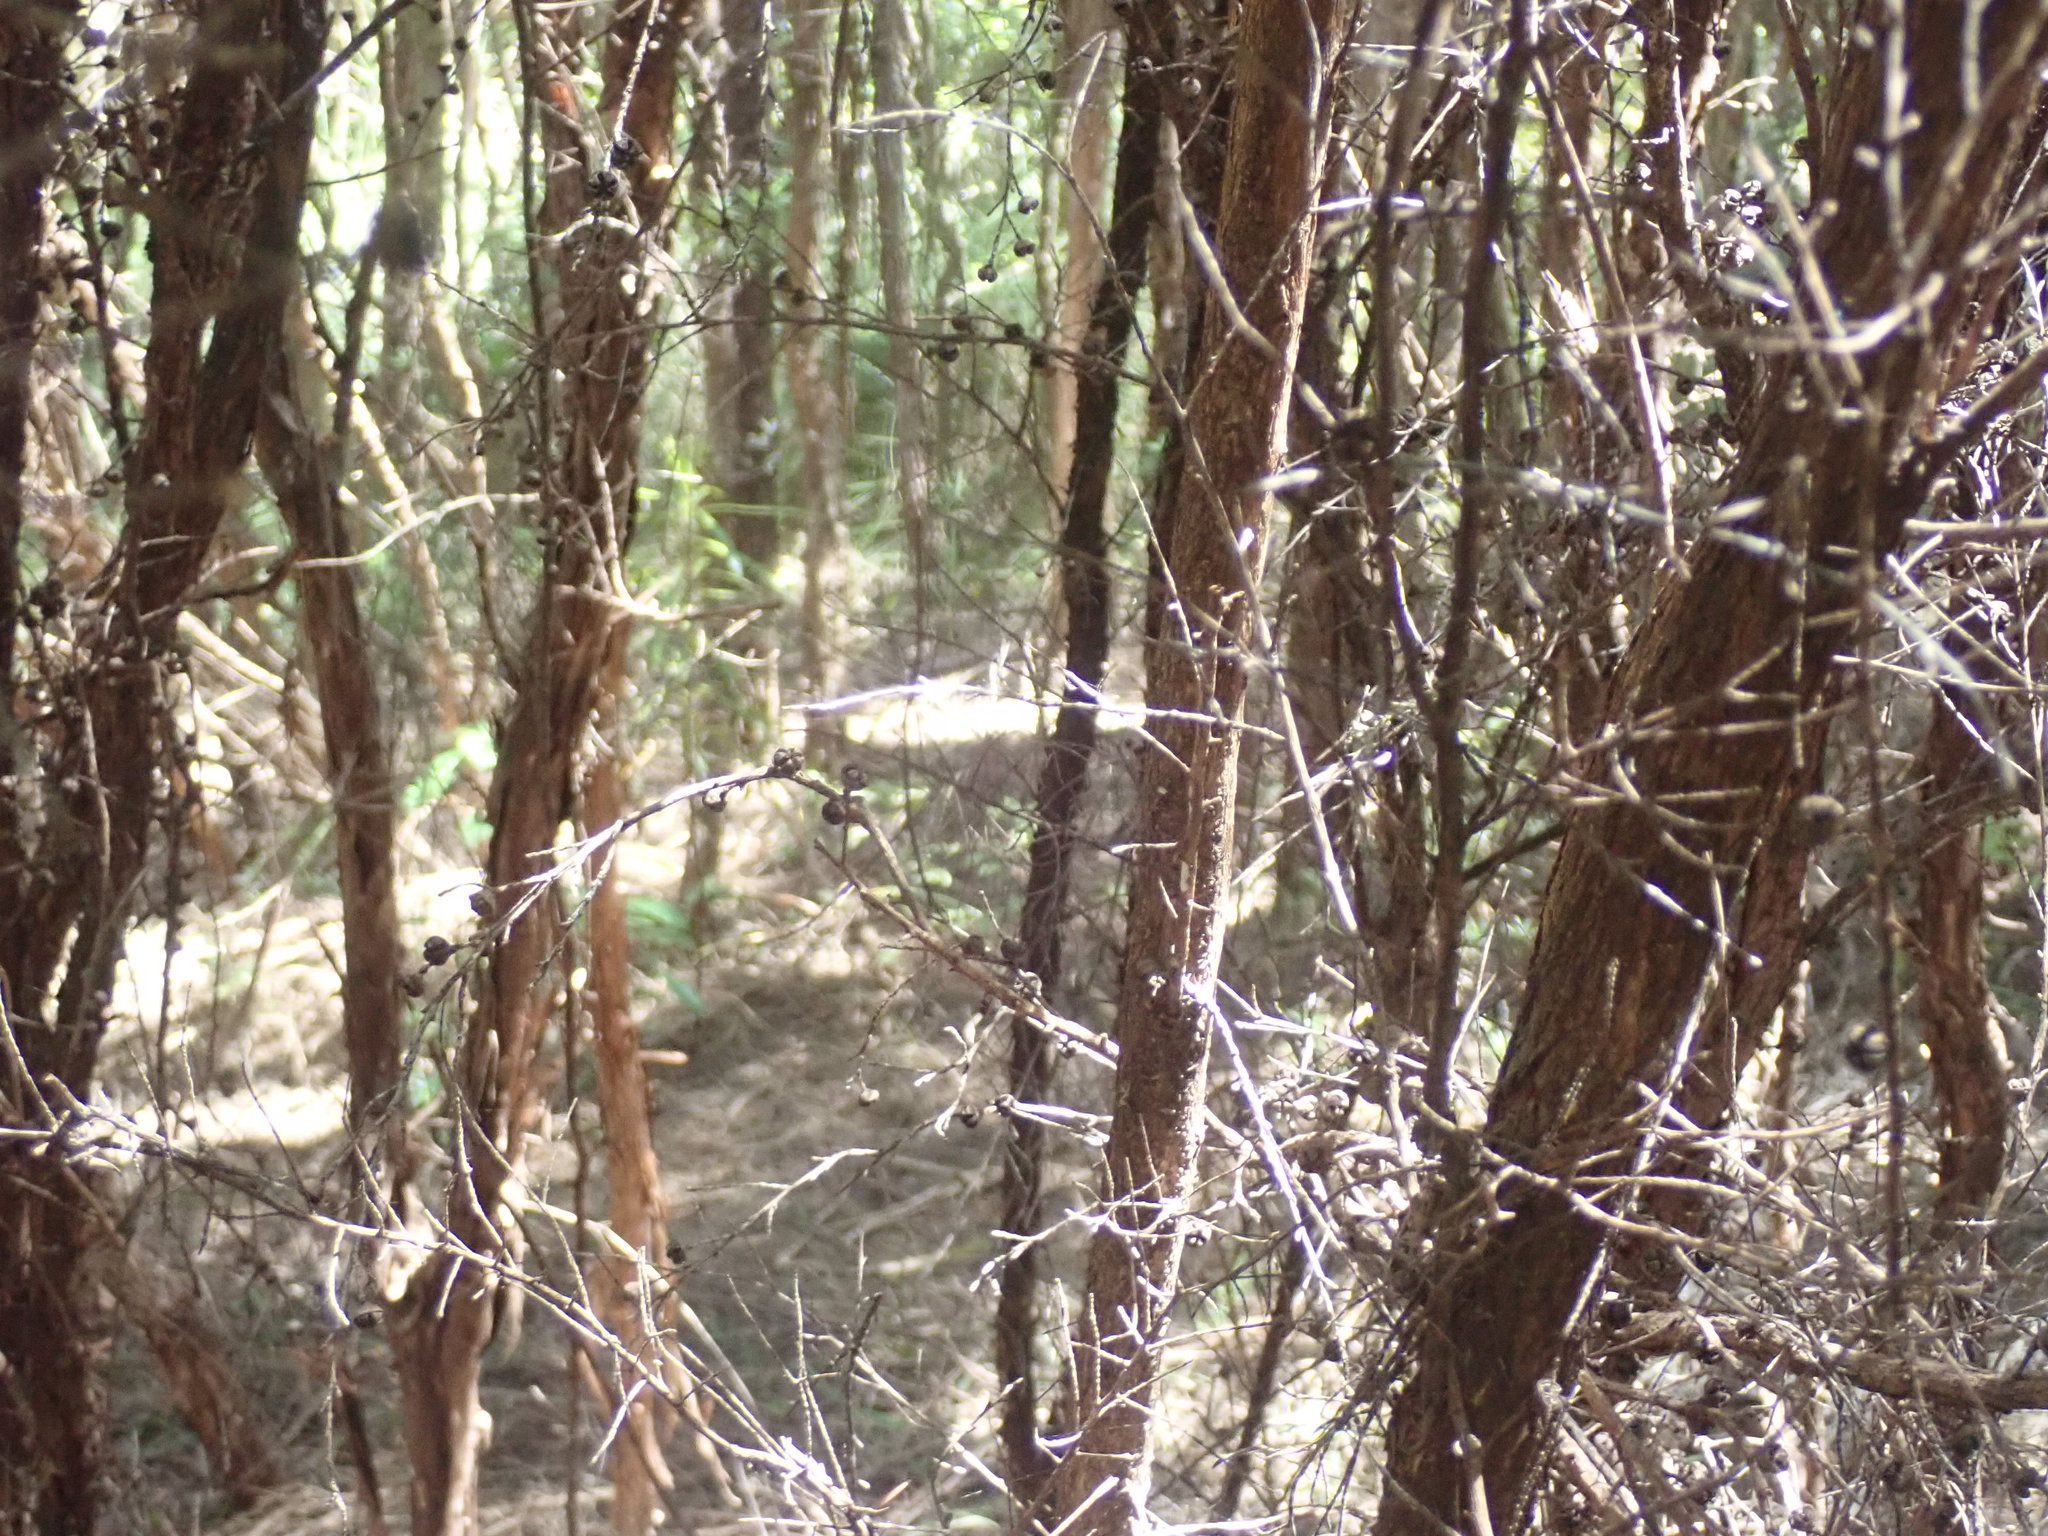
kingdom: Plantae
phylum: Tracheophyta
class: Magnoliopsida
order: Myrtales
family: Myrtaceae
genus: Leptospermum
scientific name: Leptospermum scoparium
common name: Broom tea-tree
